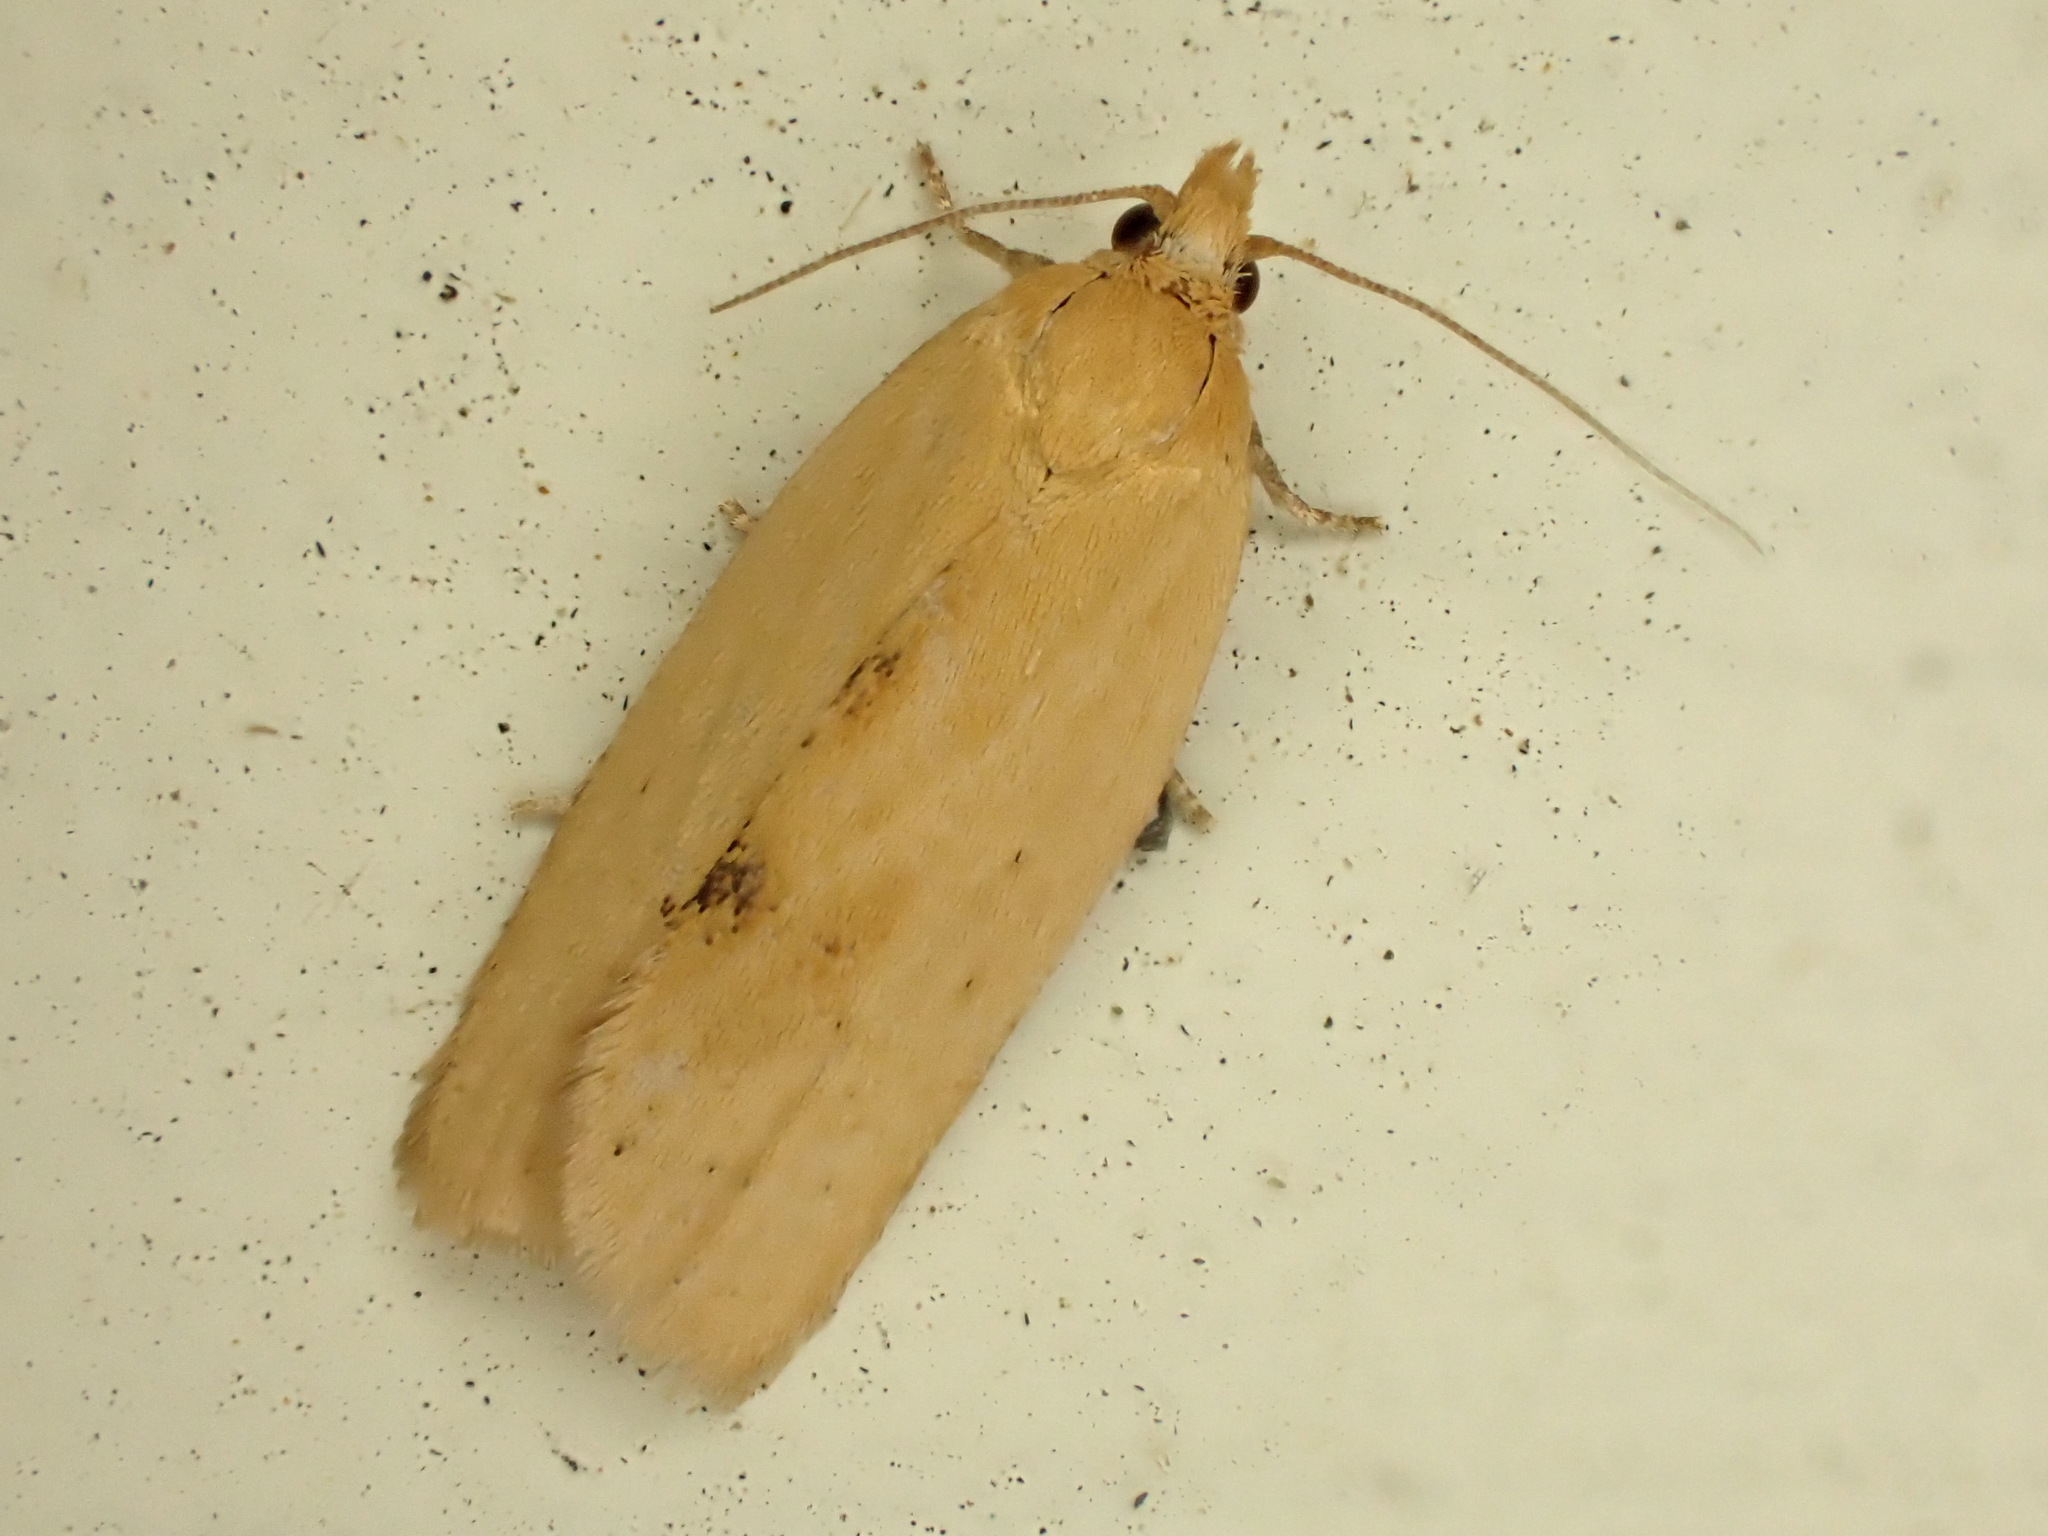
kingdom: Animalia
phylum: Arthropoda
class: Insecta
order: Lepidoptera
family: Tortricidae
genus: Clepsis
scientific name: Clepsis
